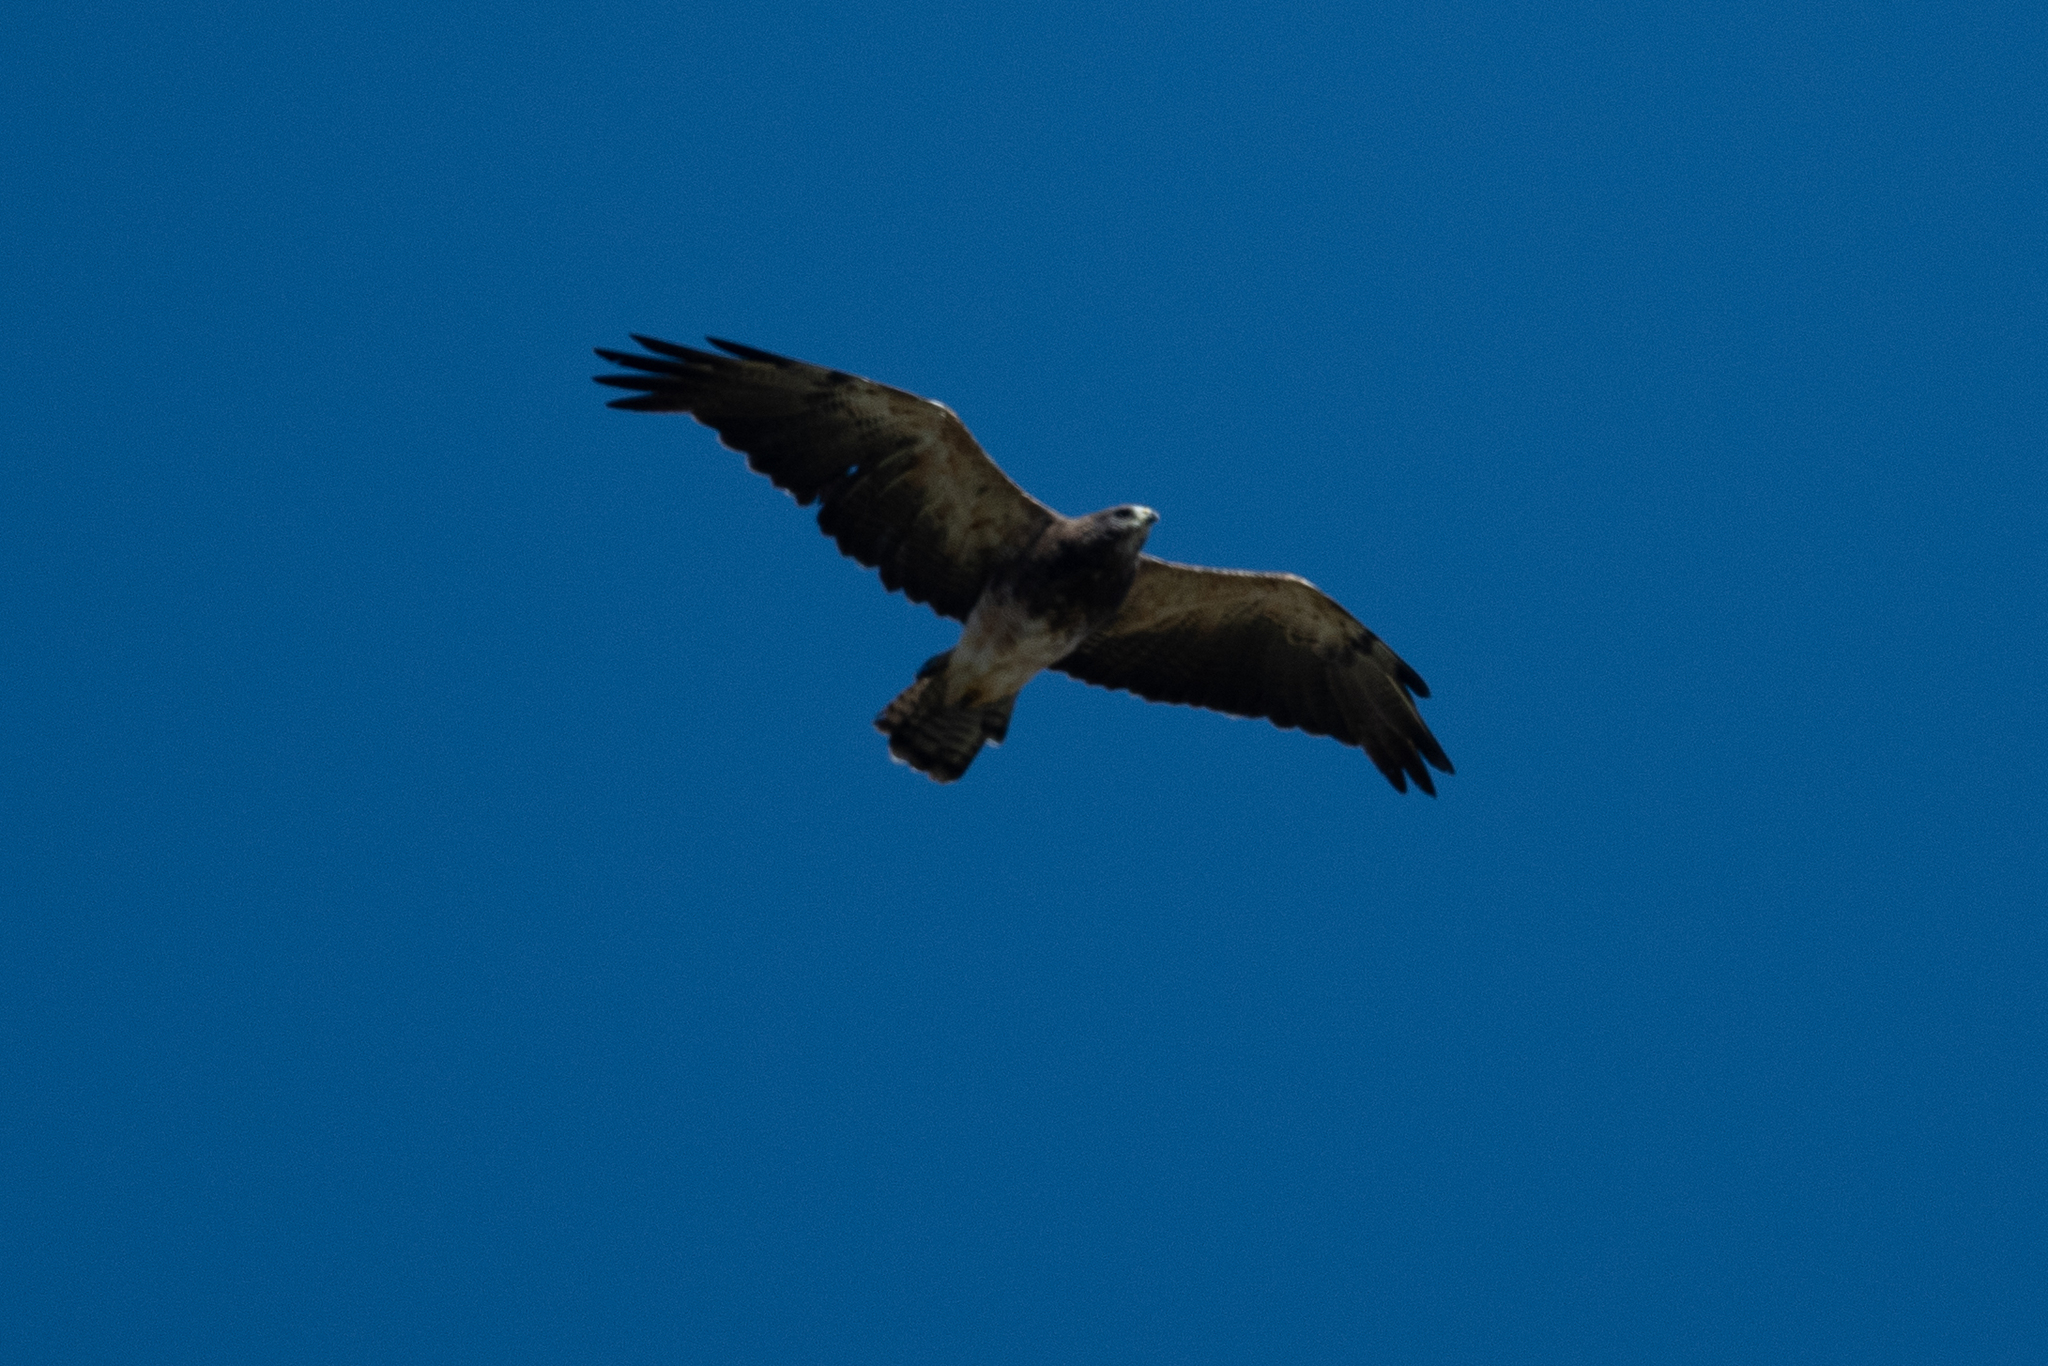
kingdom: Animalia
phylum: Chordata
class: Aves
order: Accipitriformes
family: Accipitridae
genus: Buteo
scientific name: Buteo swainsoni
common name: Swainson's hawk
